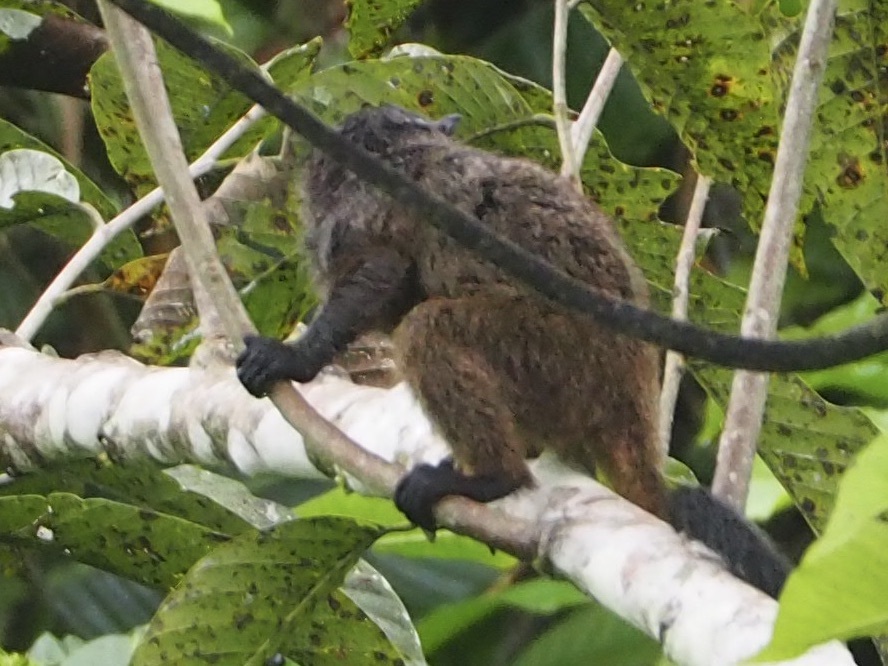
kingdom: Animalia
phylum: Chordata
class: Mammalia
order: Primates
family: Callitrichidae
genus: Leontocebus
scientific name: Leontocebus nigricollis
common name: Black-mantled tamarin
